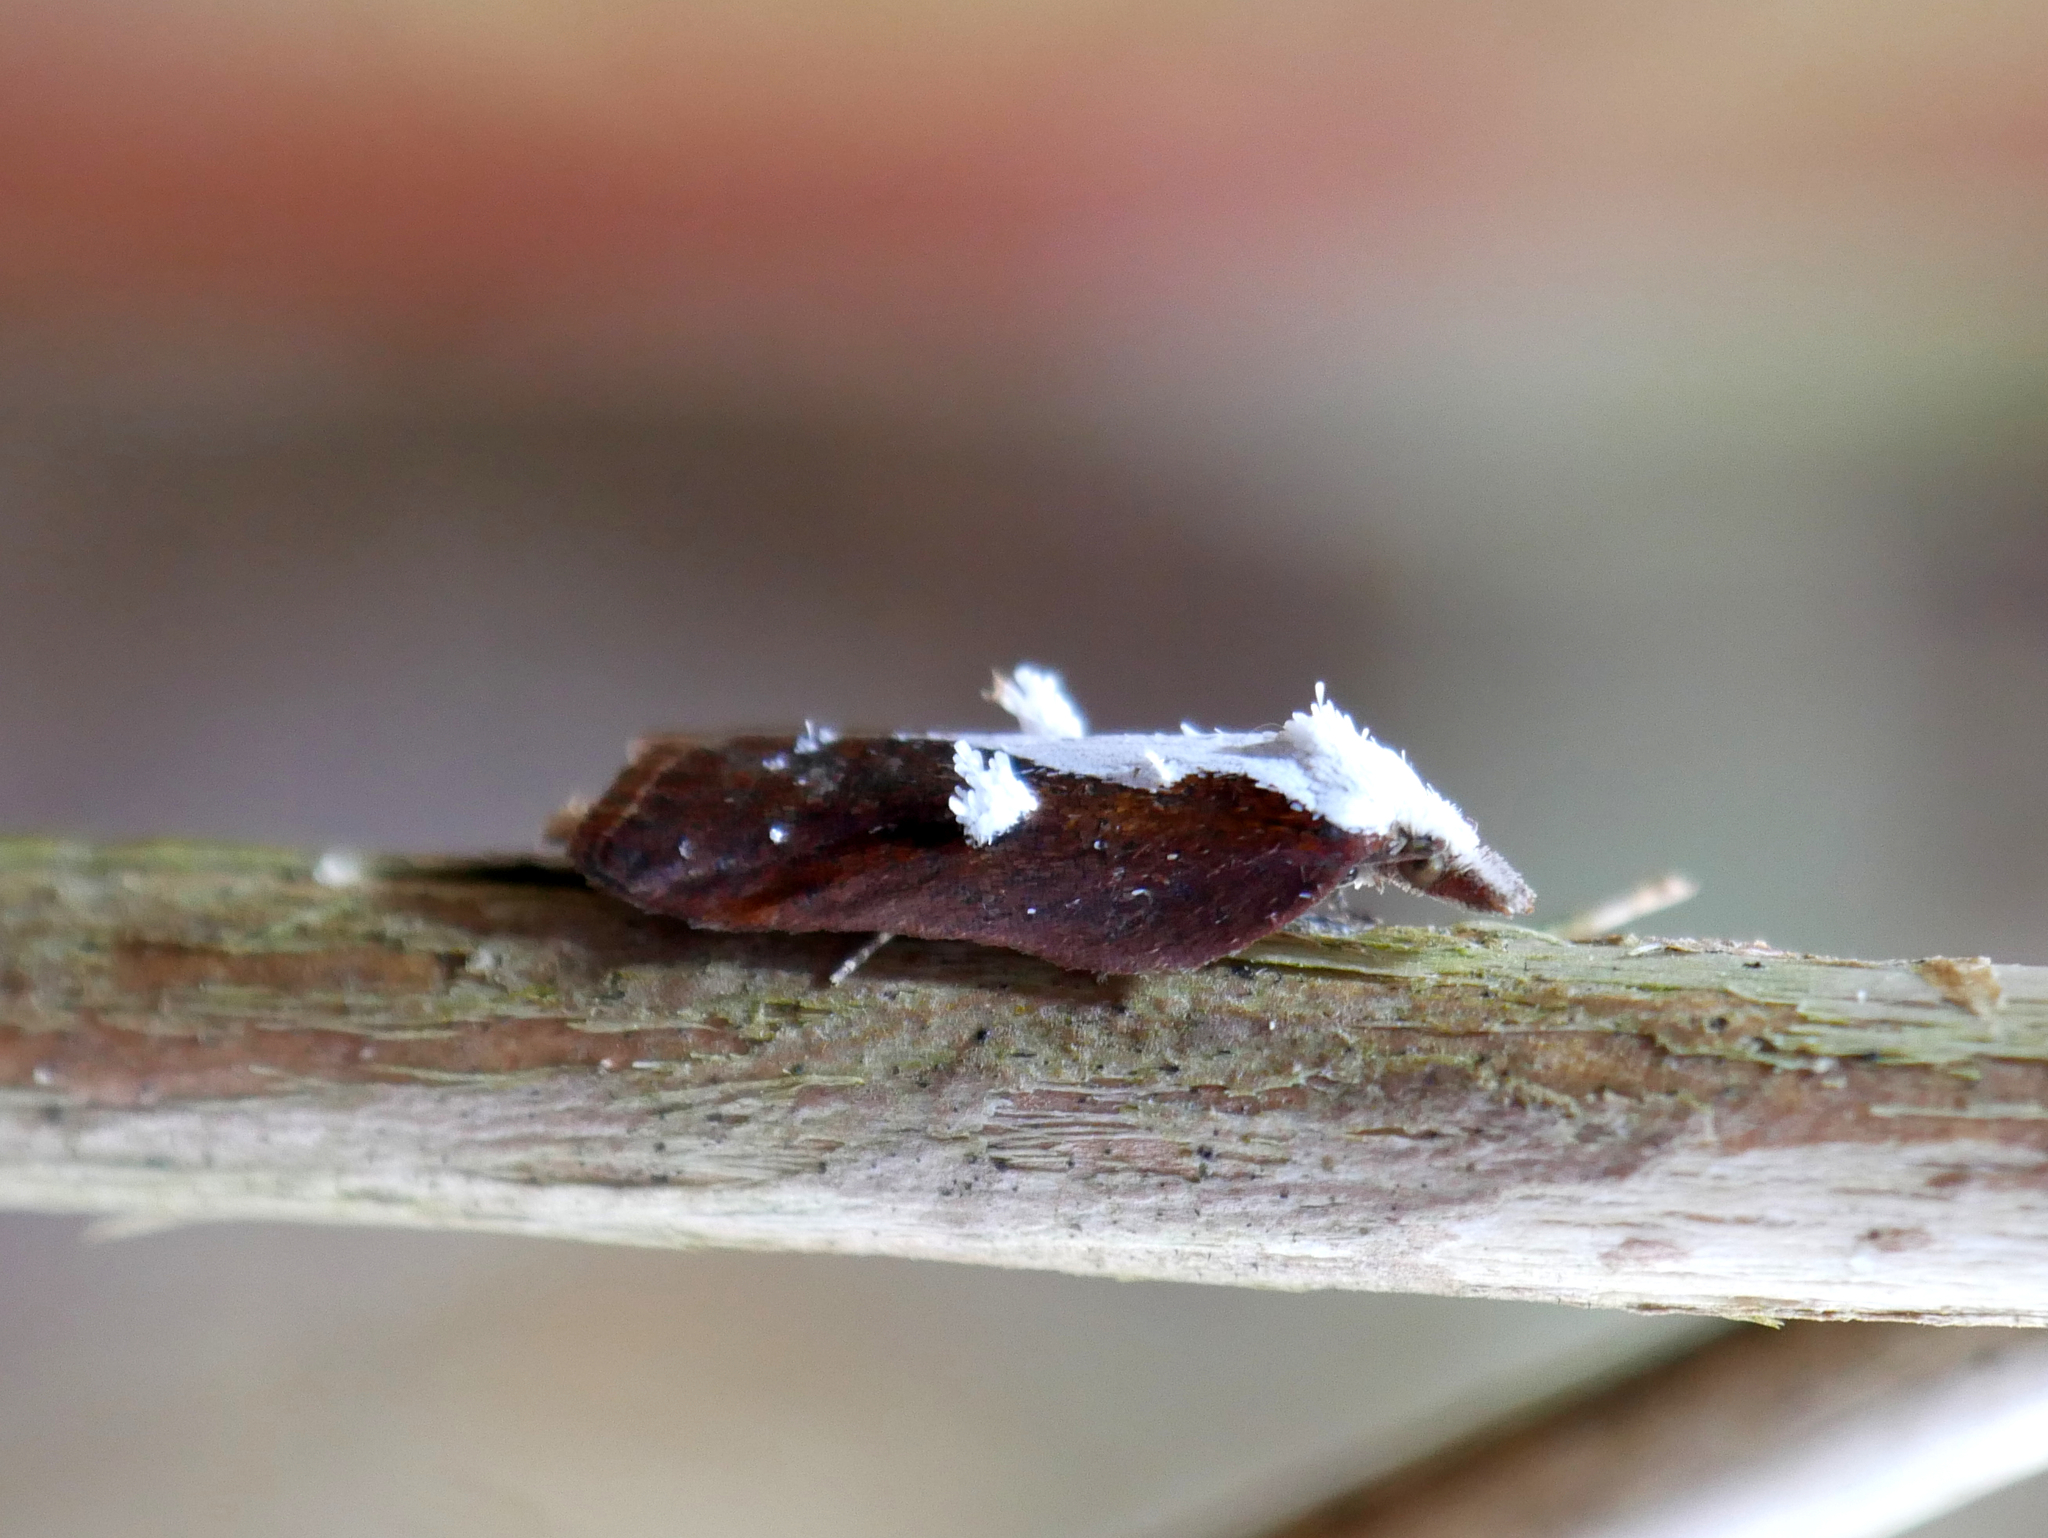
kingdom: Animalia
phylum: Arthropoda
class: Insecta
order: Lepidoptera
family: Tortricidae
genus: Acleris
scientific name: Acleris cristana
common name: Tufted button
